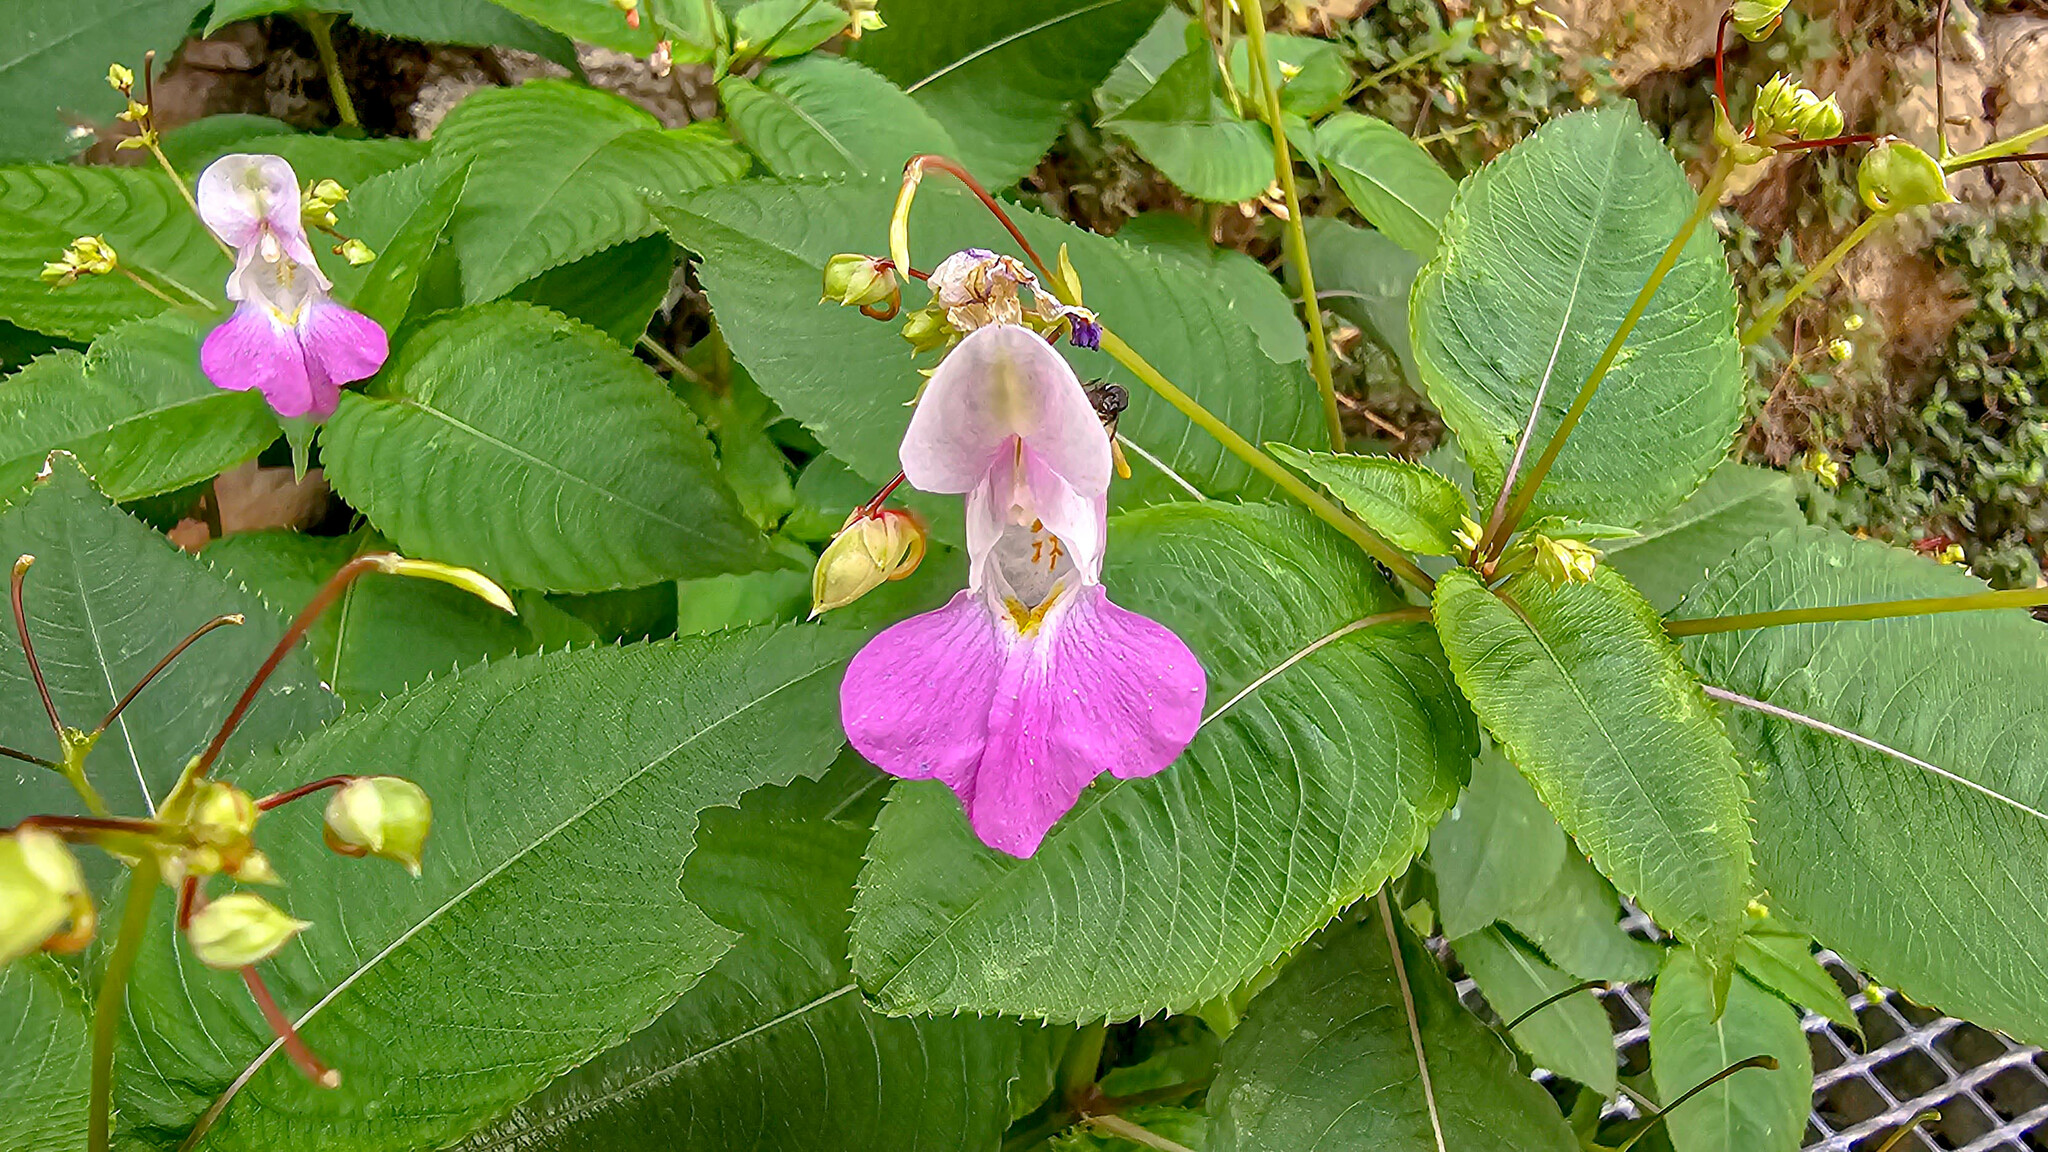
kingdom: Plantae
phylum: Tracheophyta
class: Magnoliopsida
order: Ericales
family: Balsaminaceae
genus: Impatiens
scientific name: Impatiens balfourii
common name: Balfour's touch-me-not
